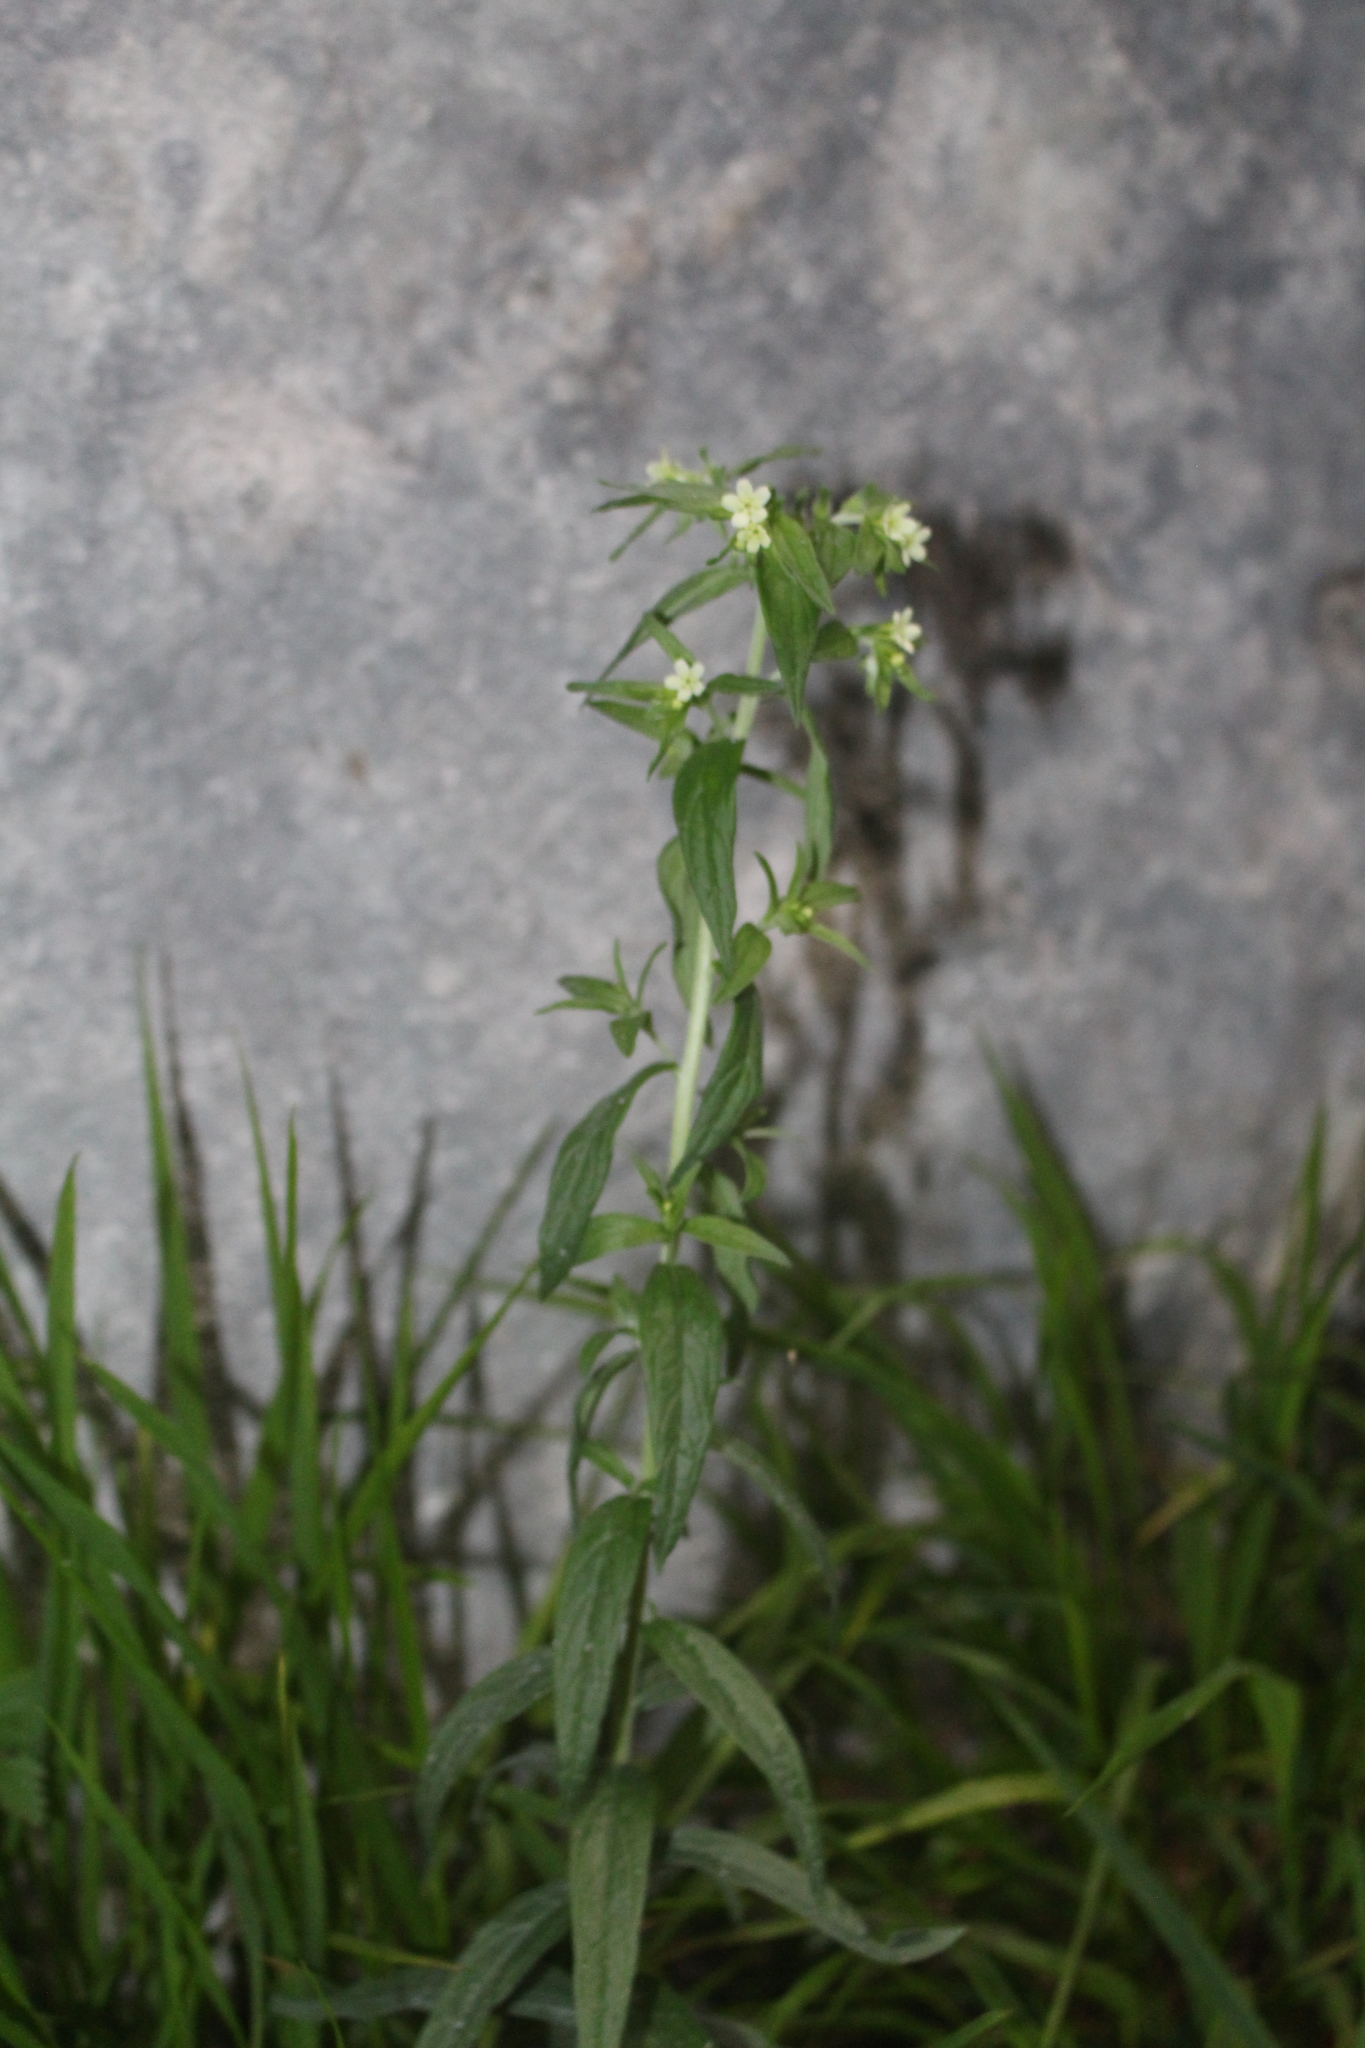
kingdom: Plantae
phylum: Tracheophyta
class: Magnoliopsida
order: Boraginales
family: Boraginaceae
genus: Lithospermum
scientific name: Lithospermum officinale
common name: Common gromwell
